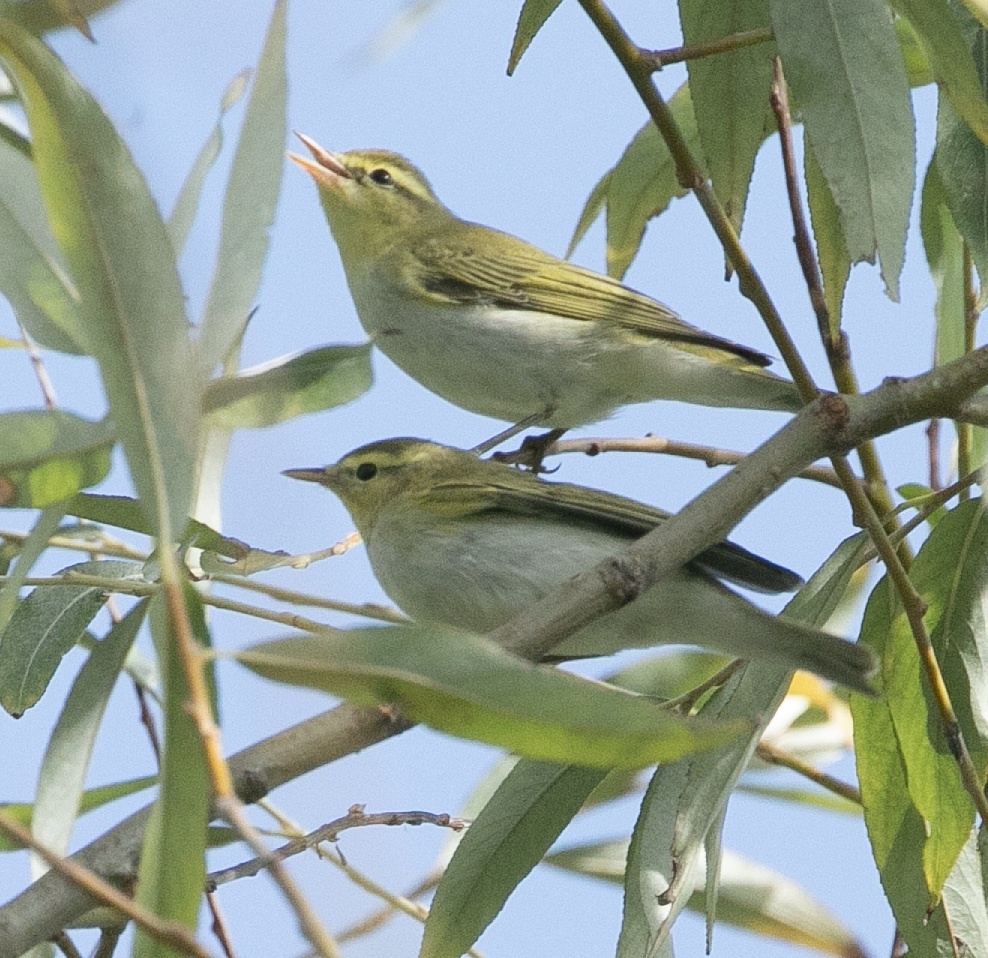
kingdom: Animalia
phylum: Chordata
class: Aves
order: Passeriformes
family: Phylloscopidae
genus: Phylloscopus
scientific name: Phylloscopus sibillatrix
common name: Wood warbler
